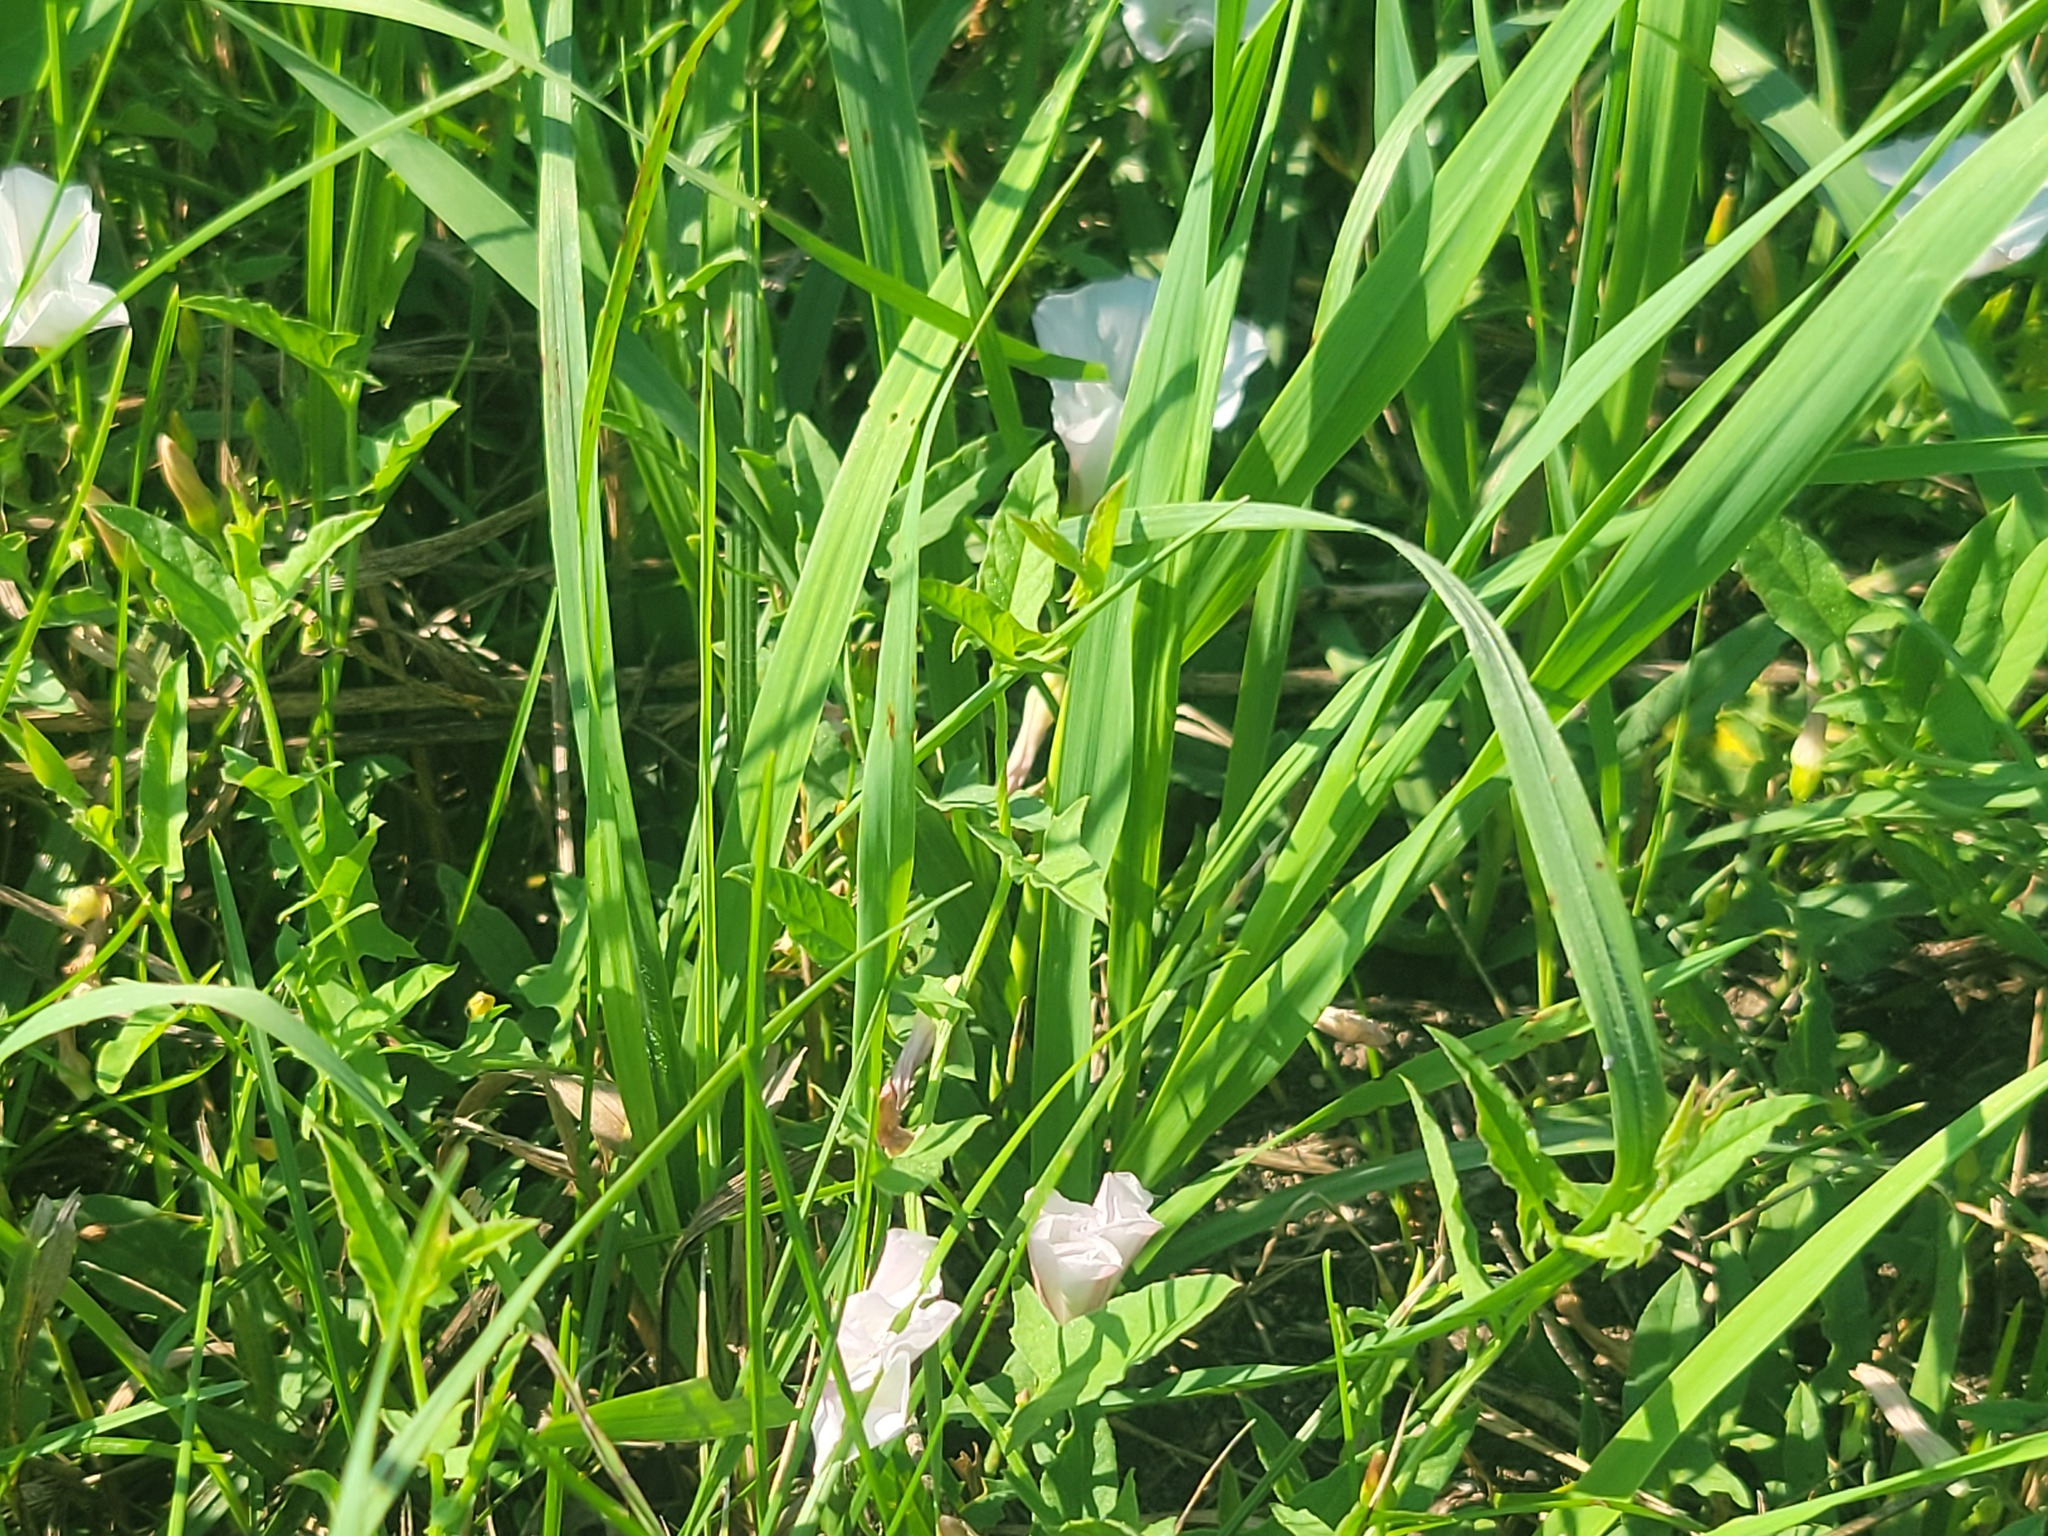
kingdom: Plantae
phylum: Tracheophyta
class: Magnoliopsida
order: Solanales
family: Convolvulaceae
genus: Convolvulus
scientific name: Convolvulus arvensis
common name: Field bindweed
